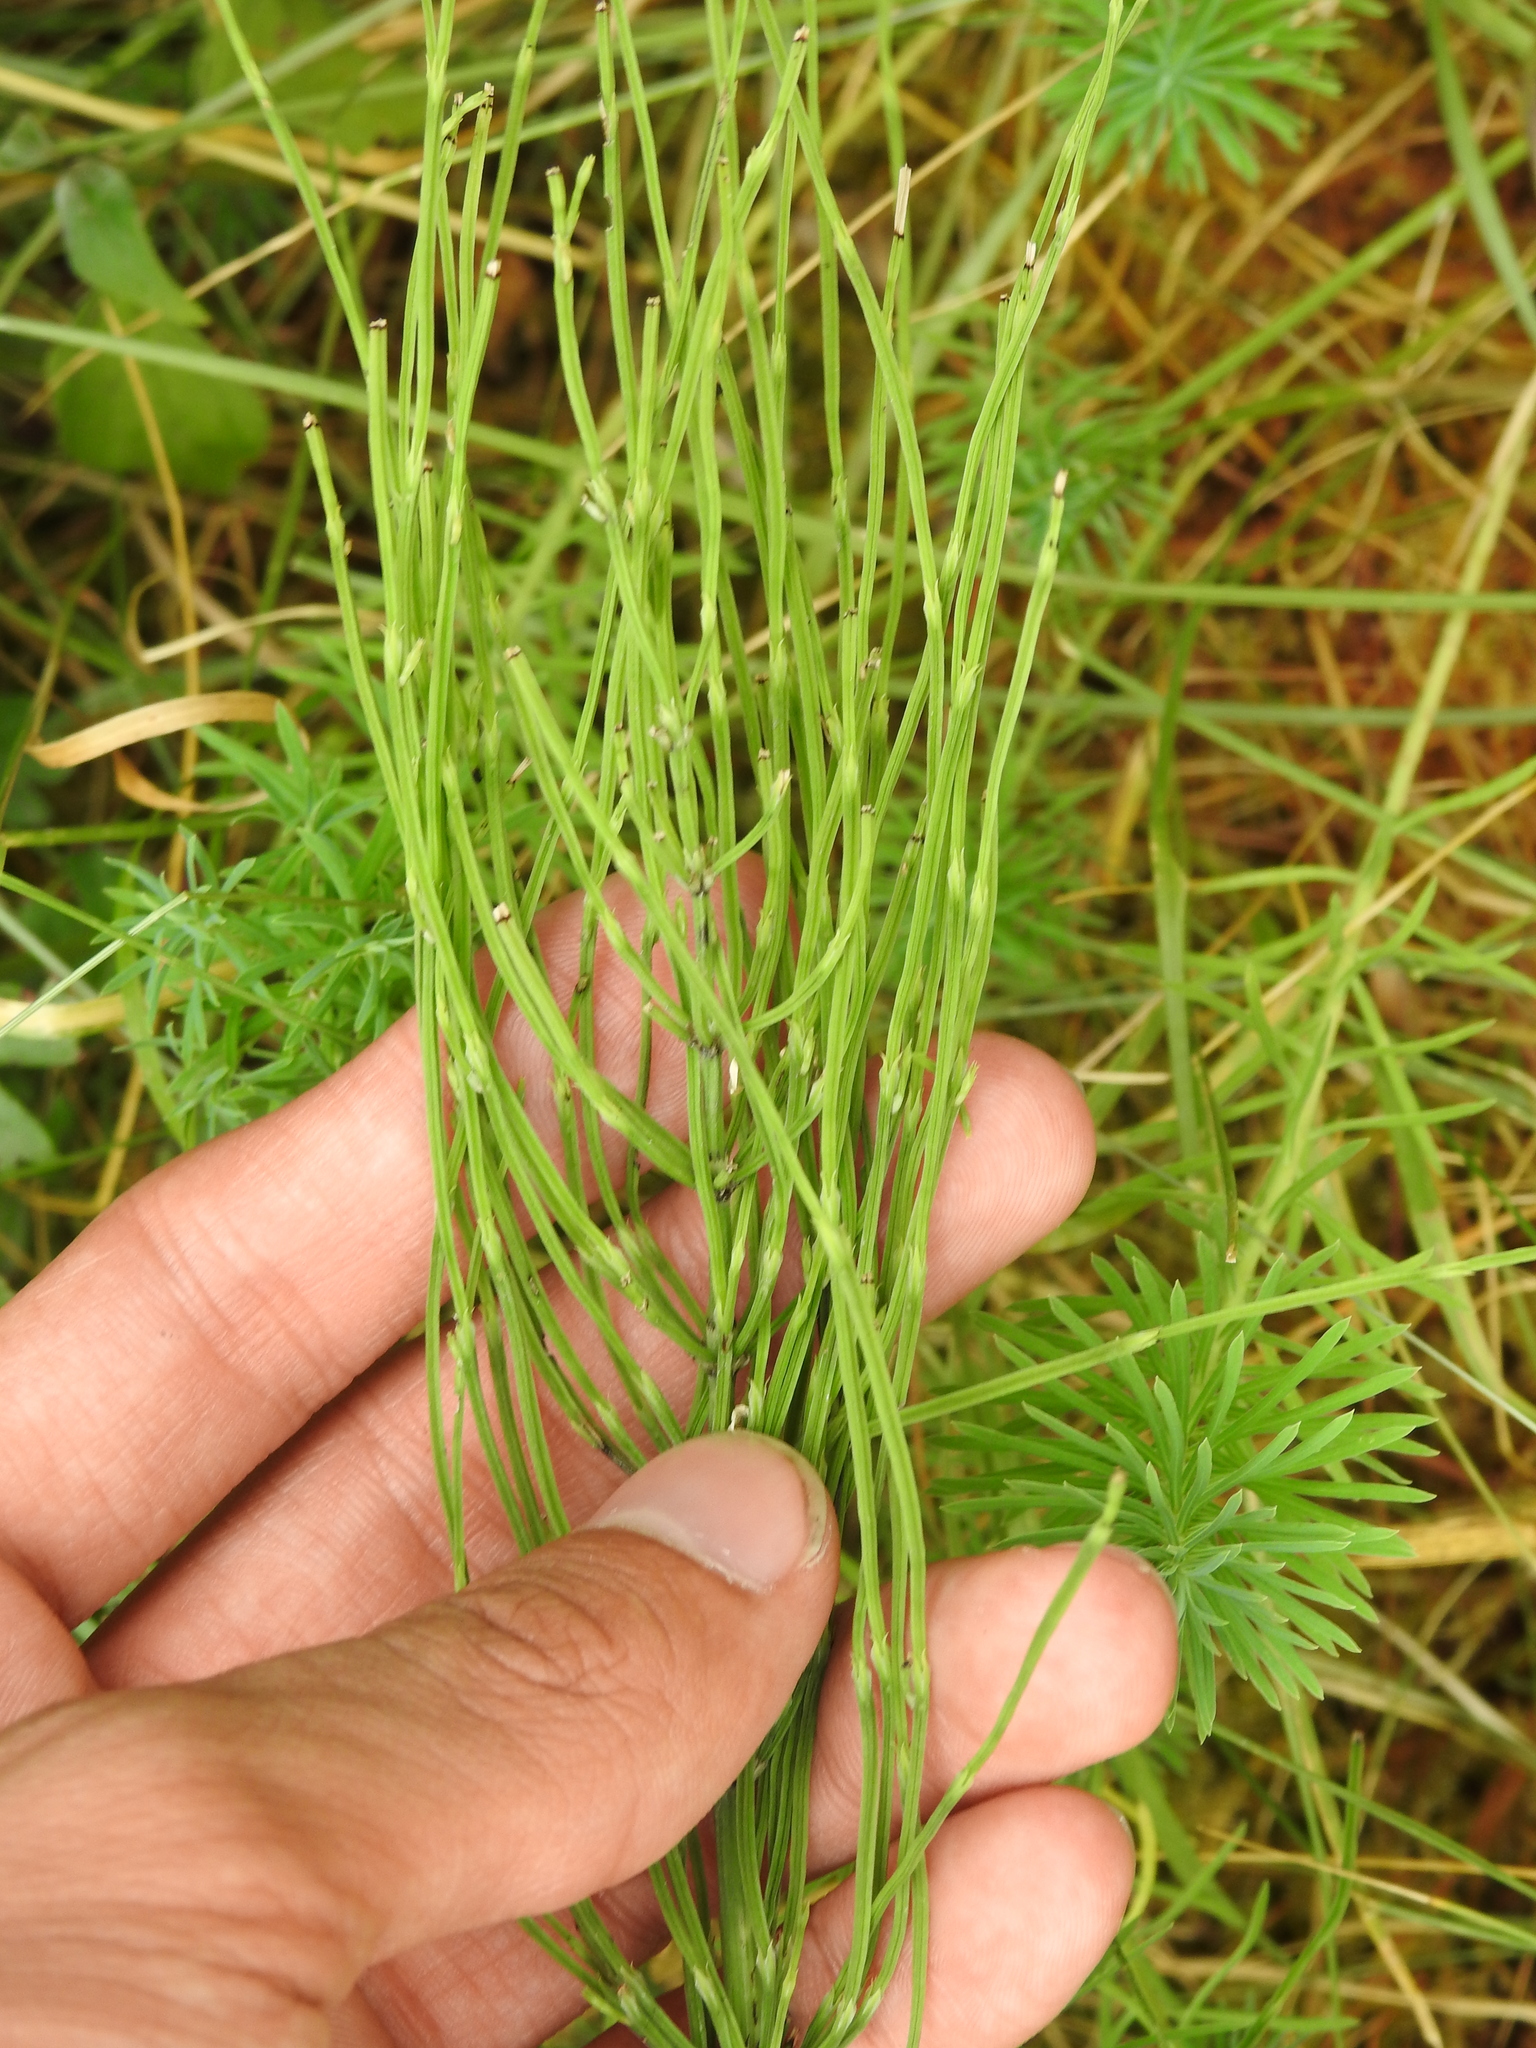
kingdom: Plantae
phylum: Tracheophyta
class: Polypodiopsida
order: Equisetales
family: Equisetaceae
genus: Equisetum
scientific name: Equisetum arvense
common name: Field horsetail
